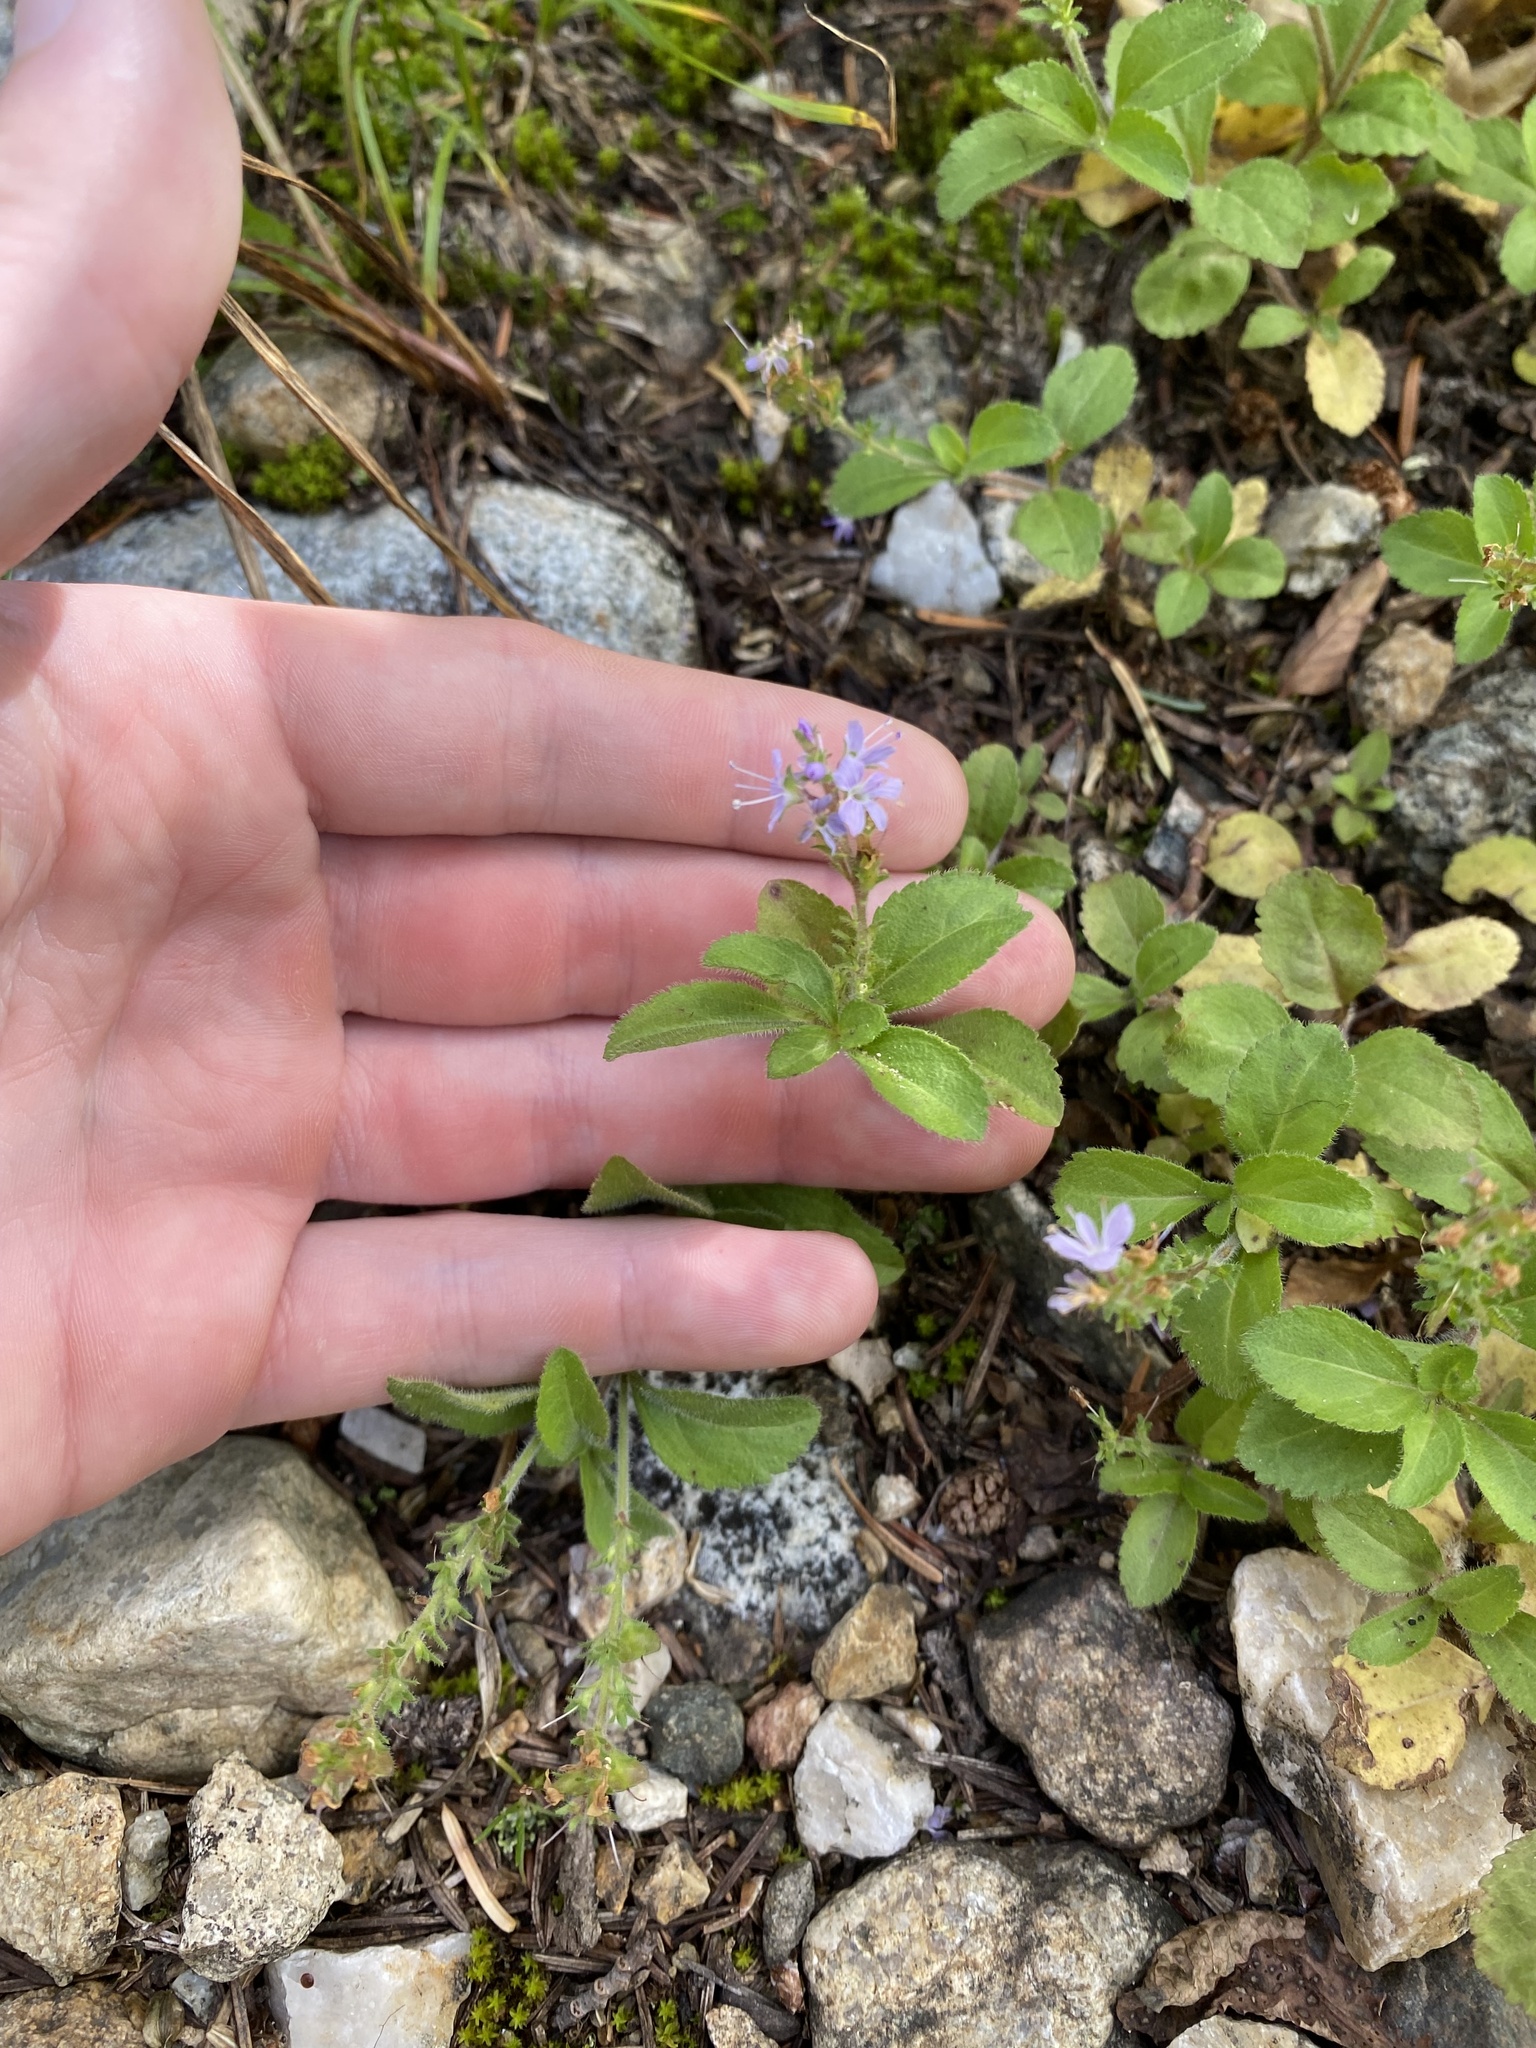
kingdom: Plantae
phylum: Tracheophyta
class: Magnoliopsida
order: Lamiales
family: Plantaginaceae
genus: Veronica
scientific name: Veronica officinalis
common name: Common speedwell
